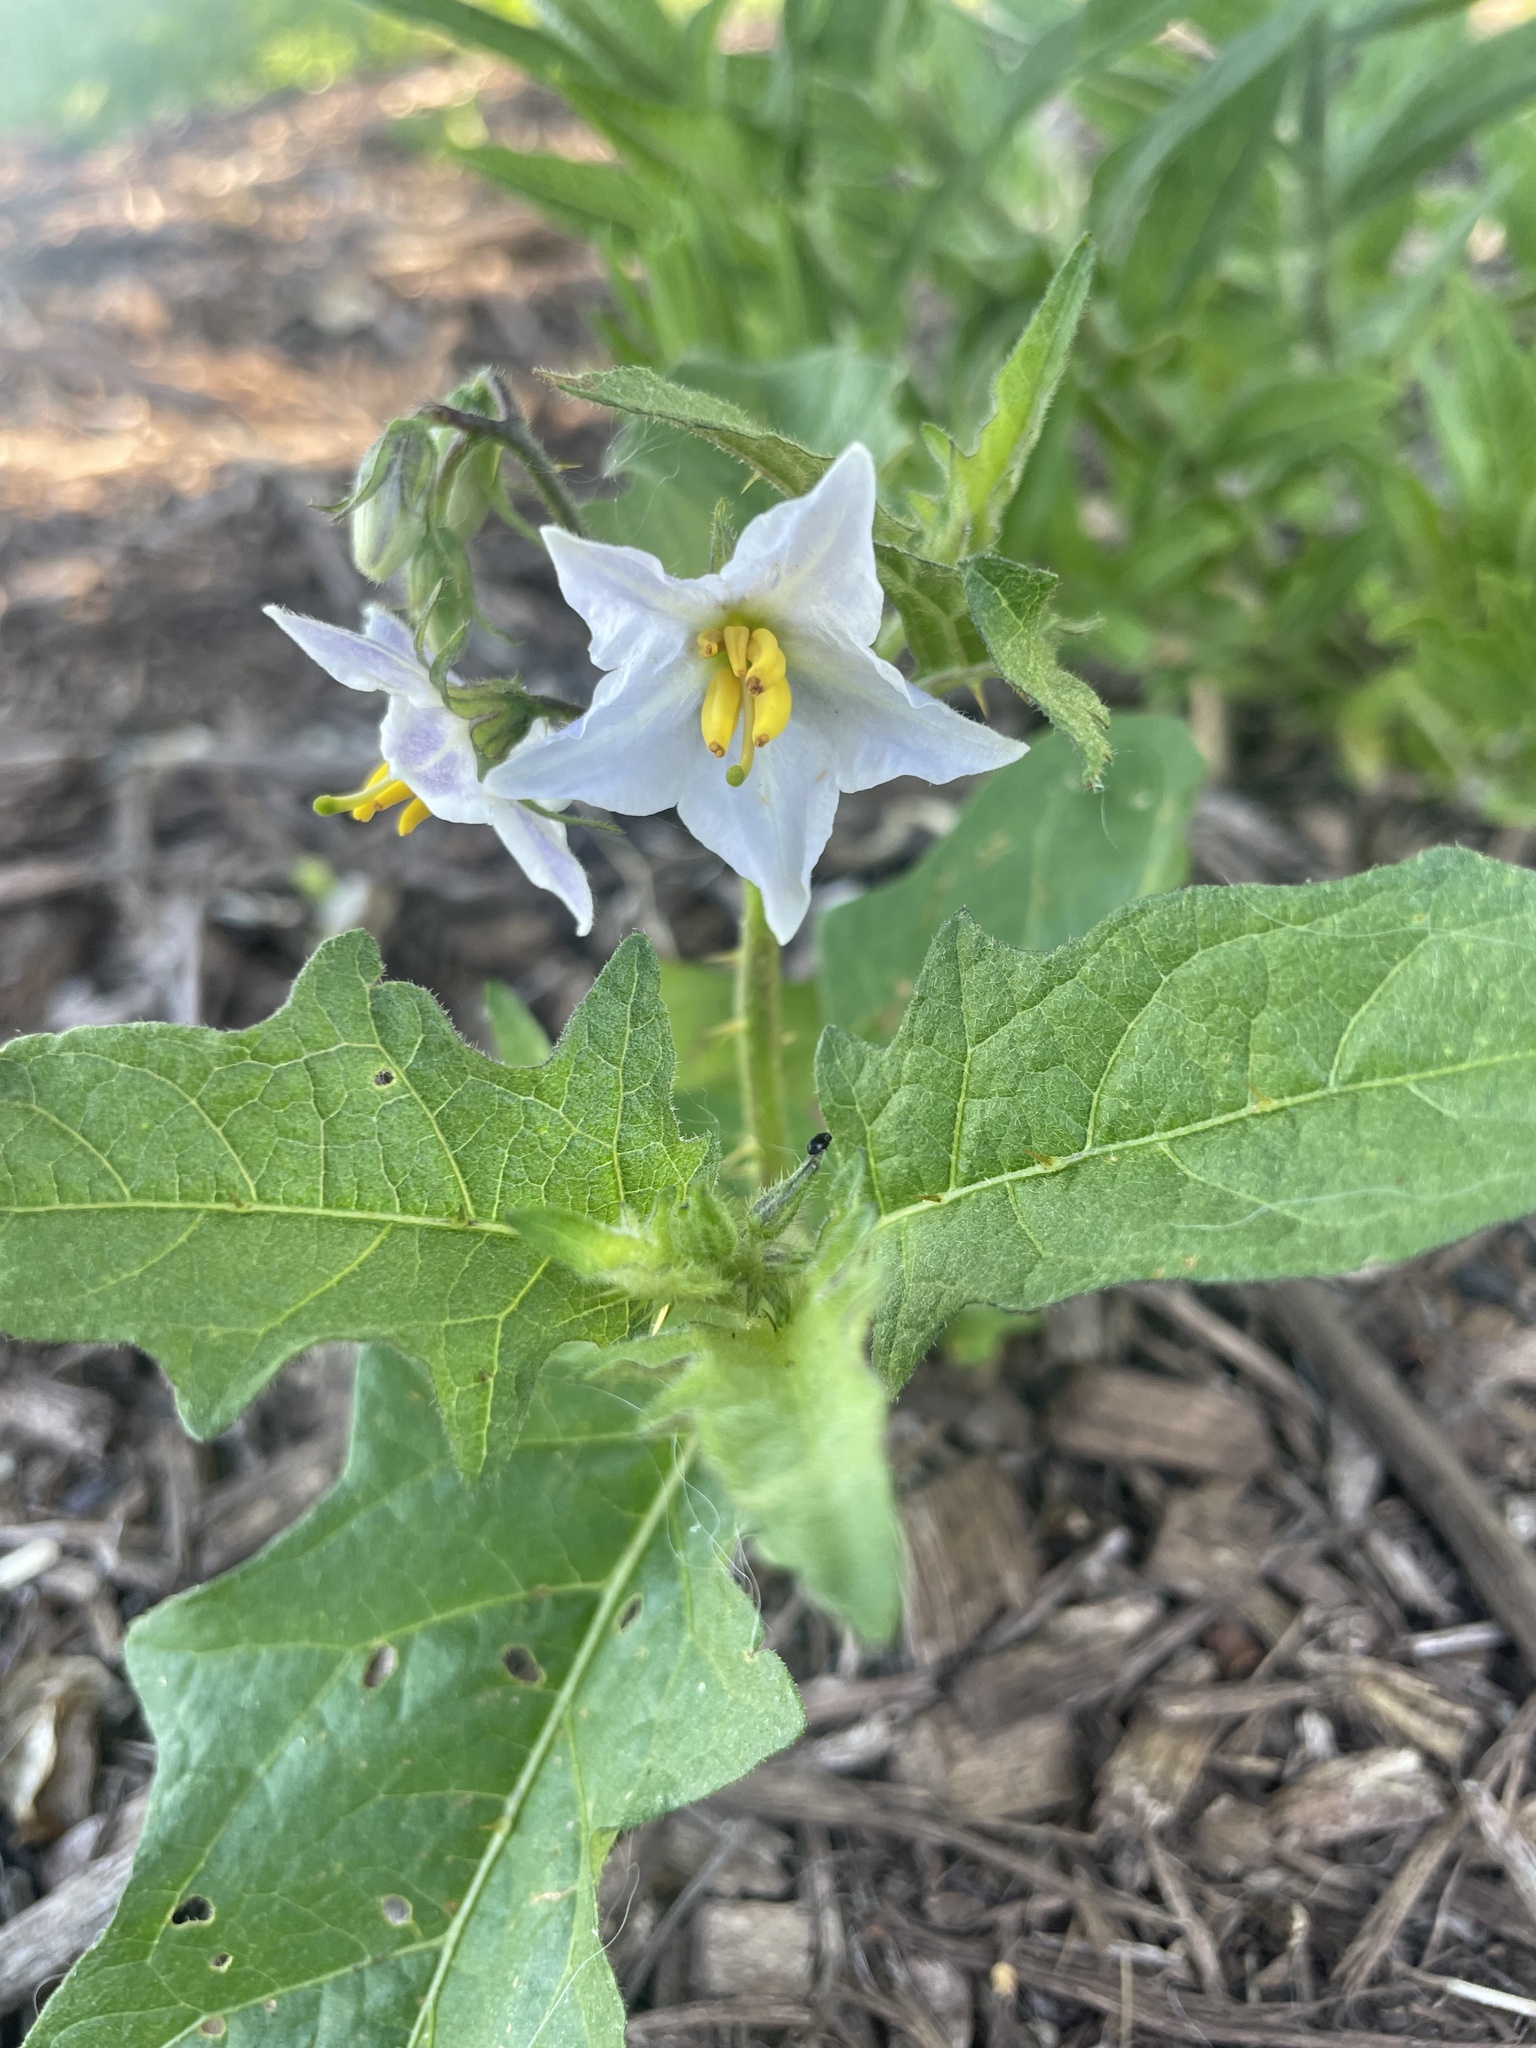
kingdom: Plantae
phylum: Tracheophyta
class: Magnoliopsida
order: Solanales
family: Solanaceae
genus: Solanum
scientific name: Solanum carolinense
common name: Horse-nettle
